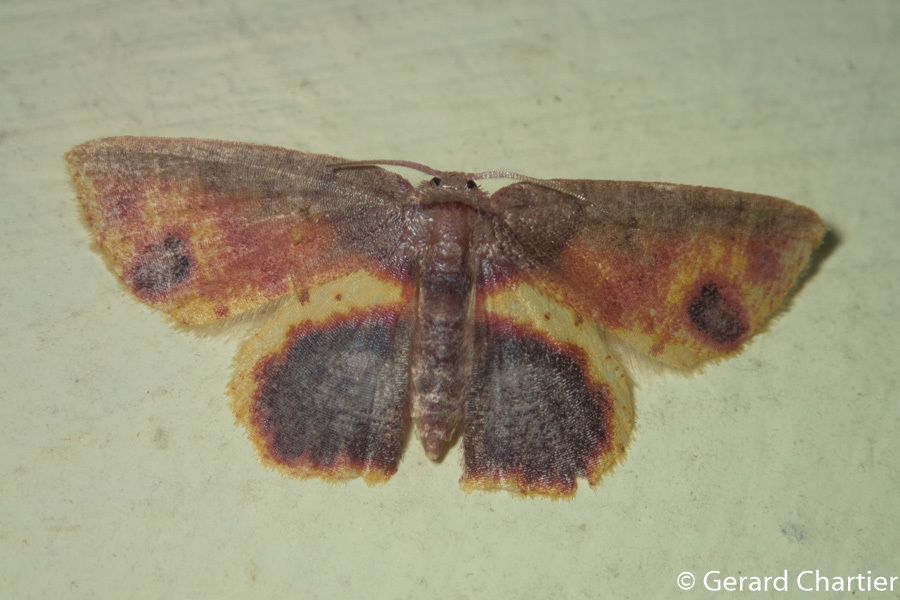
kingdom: Animalia
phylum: Arthropoda
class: Insecta
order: Lepidoptera
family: Geometridae
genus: Chrysocraspeda
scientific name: Chrysocraspeda mitigata
